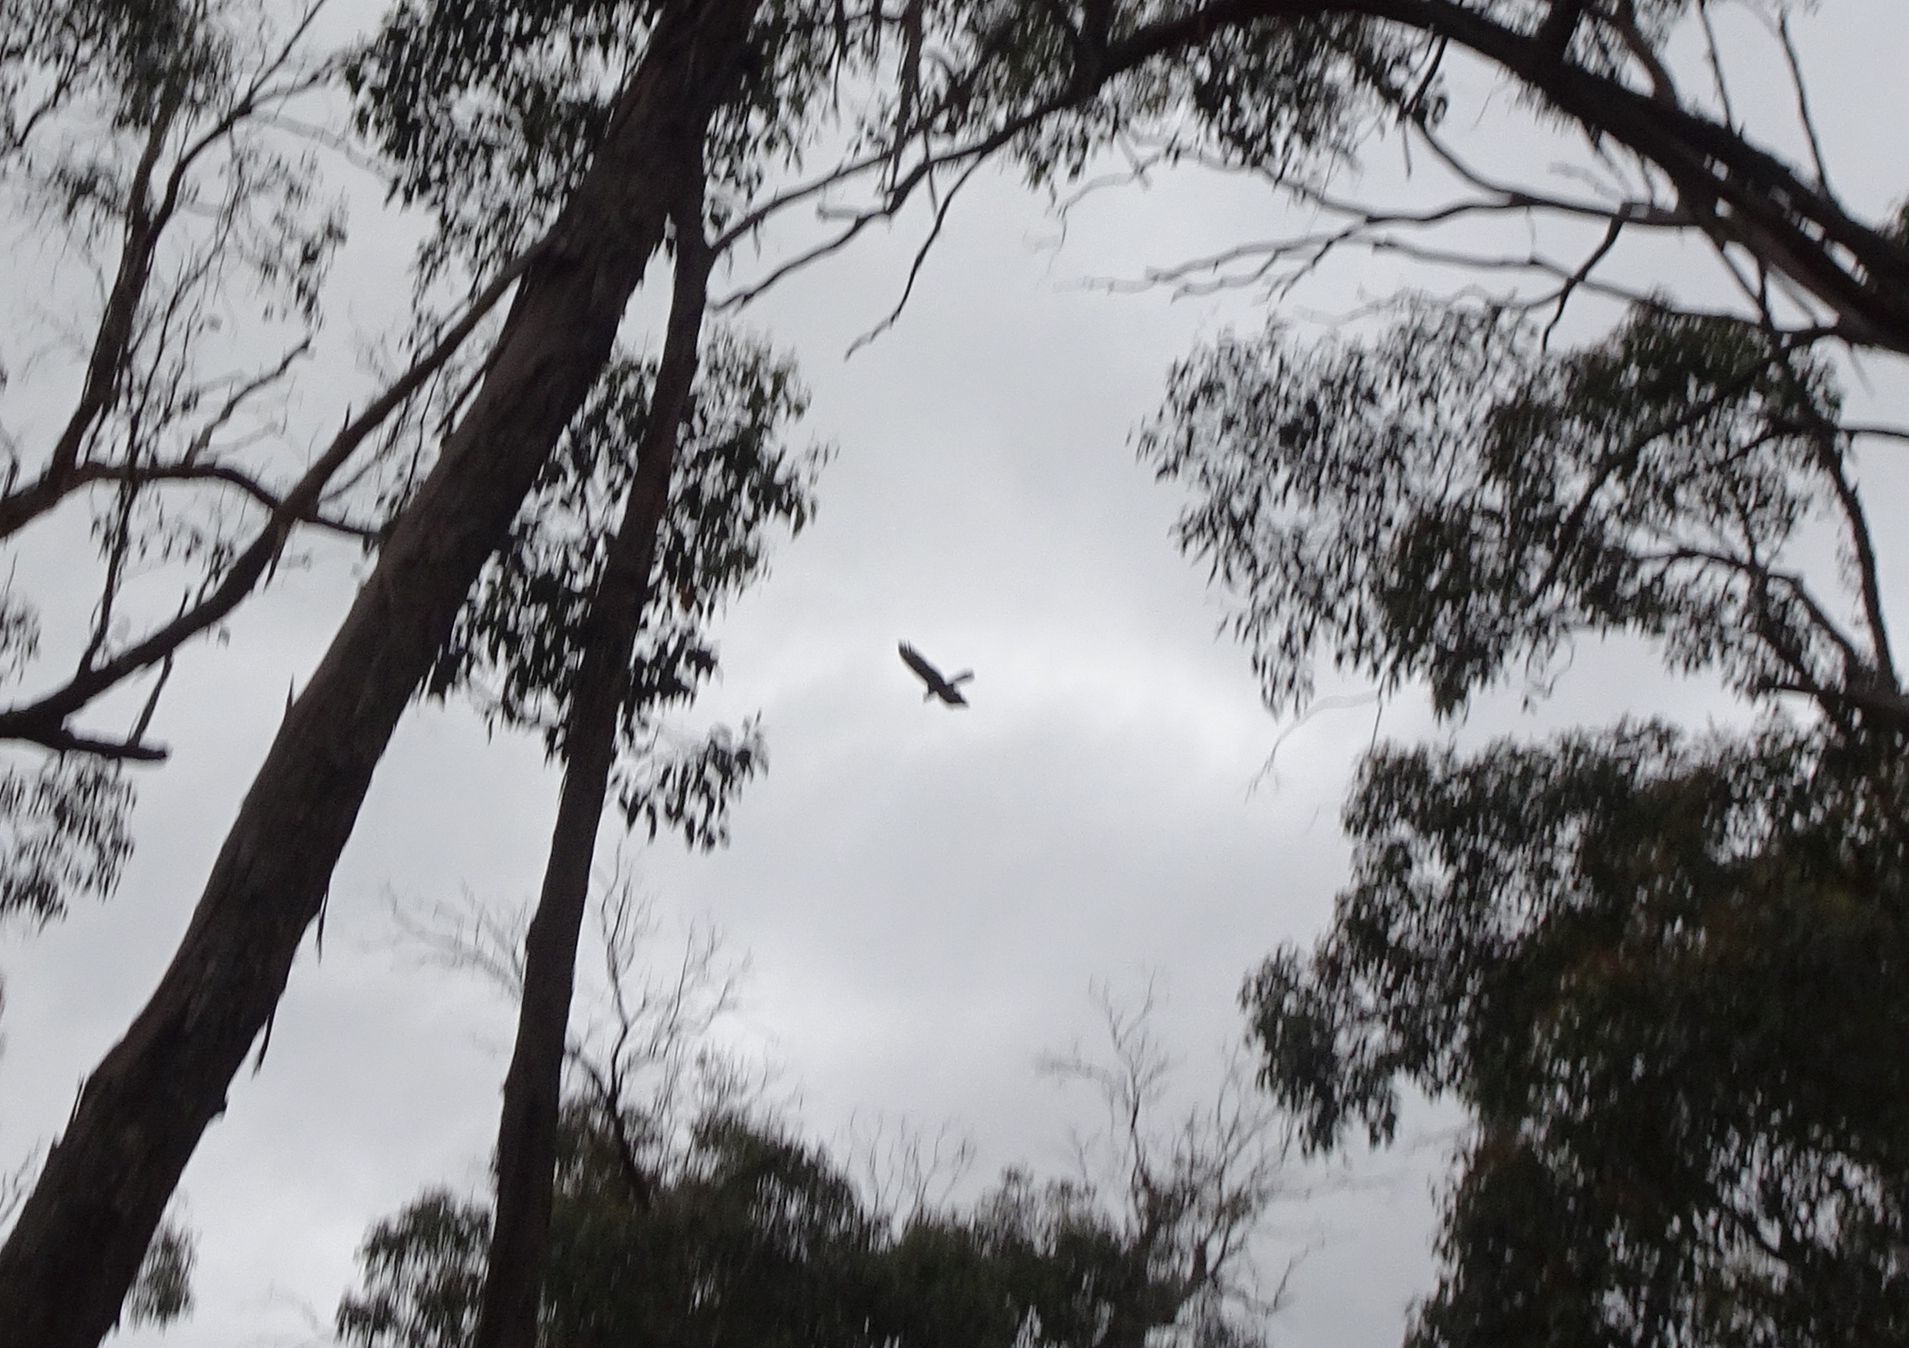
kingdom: Animalia
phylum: Chordata
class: Aves
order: Psittaciformes
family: Cacatuidae
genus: Zanda
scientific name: Zanda funerea
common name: Yellow-tailed black-cockatoo
